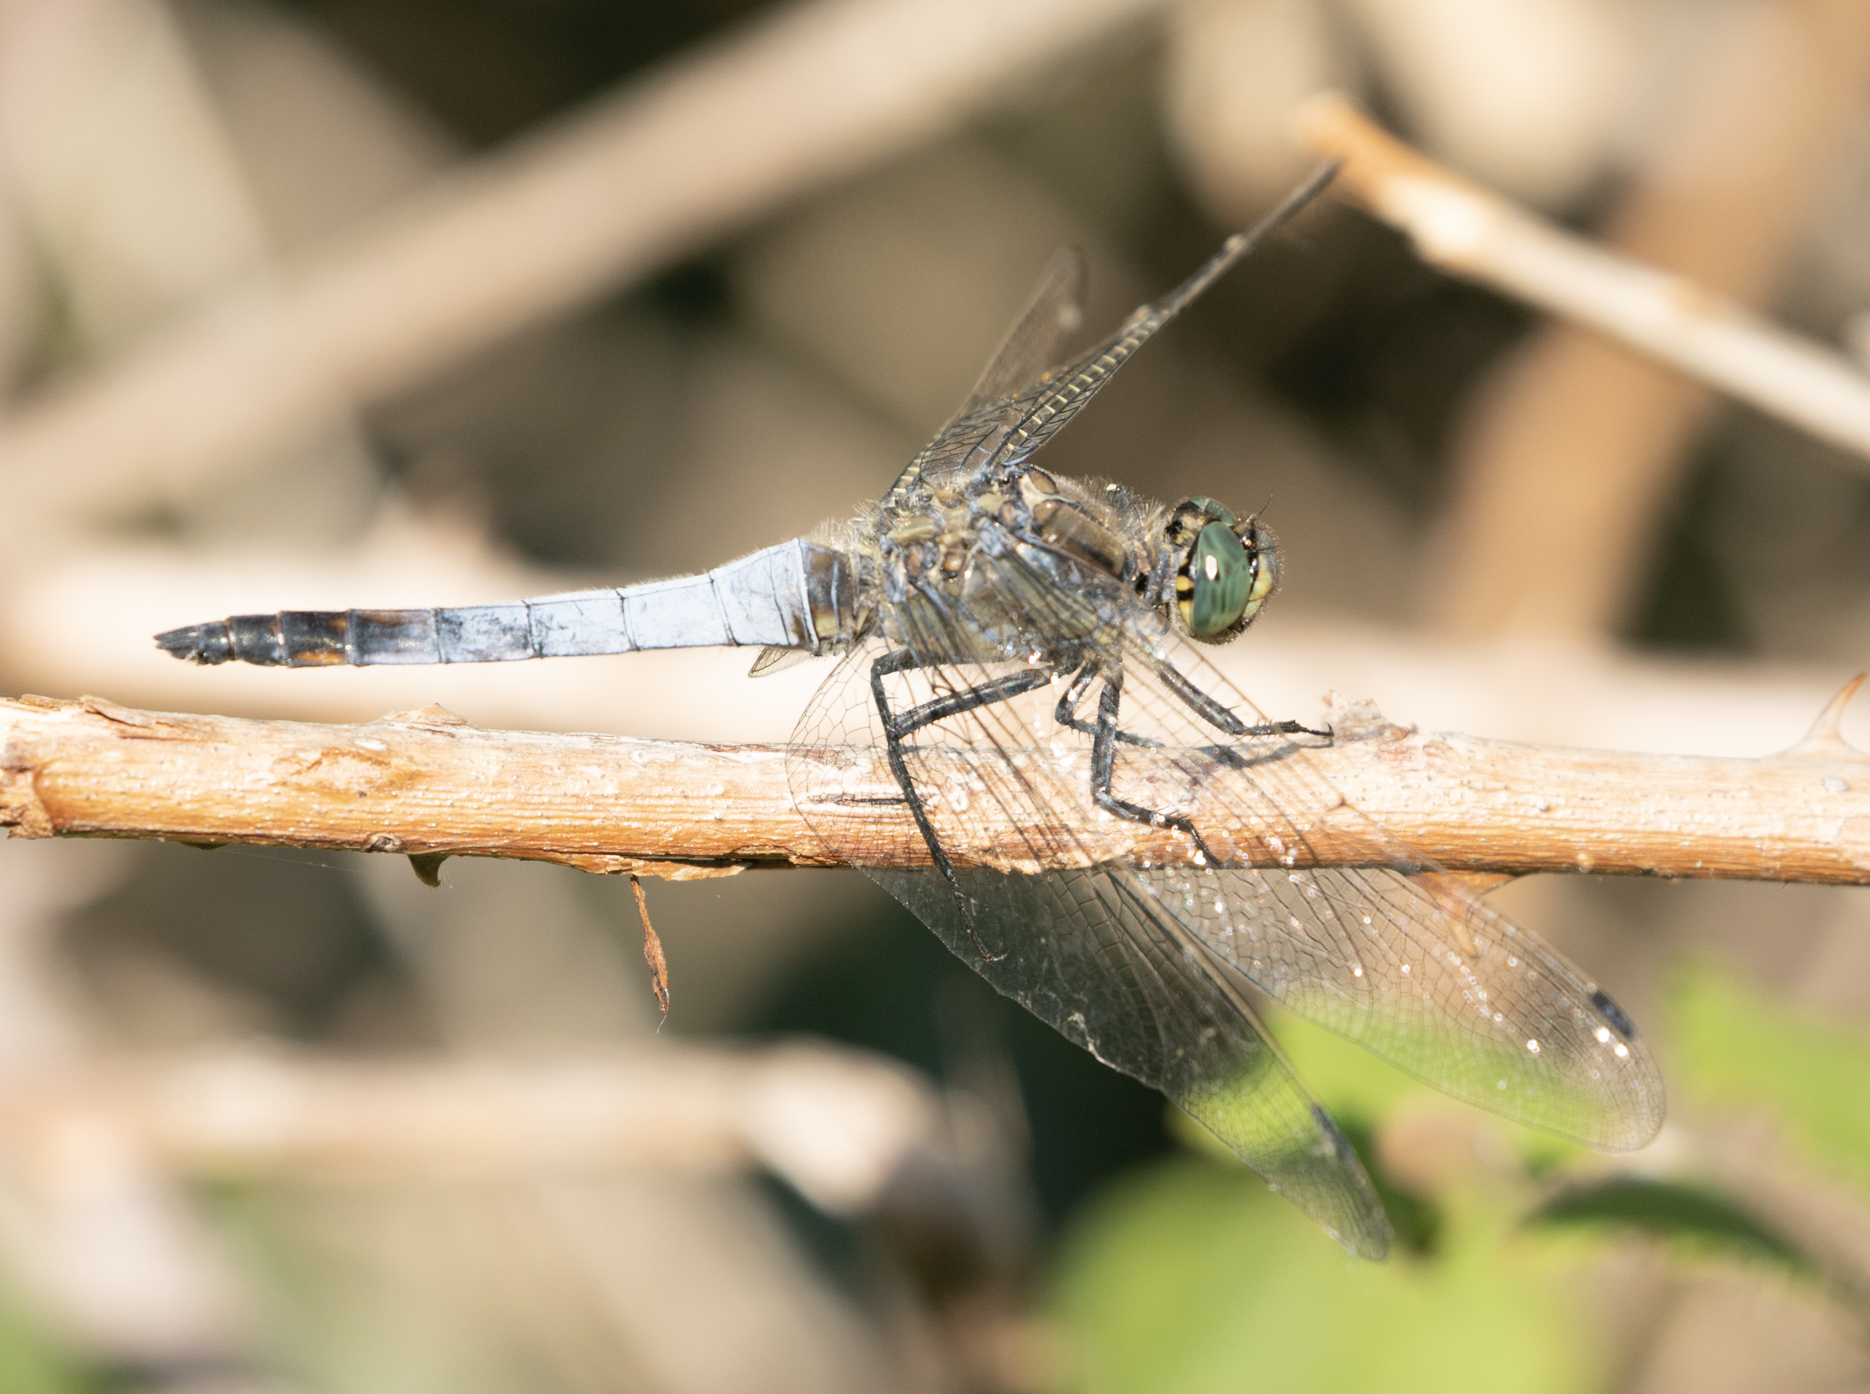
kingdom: Animalia
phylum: Arthropoda
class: Insecta
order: Odonata
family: Libellulidae
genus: Orthetrum
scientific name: Orthetrum cancellatum
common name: Black-tailed skimmer
